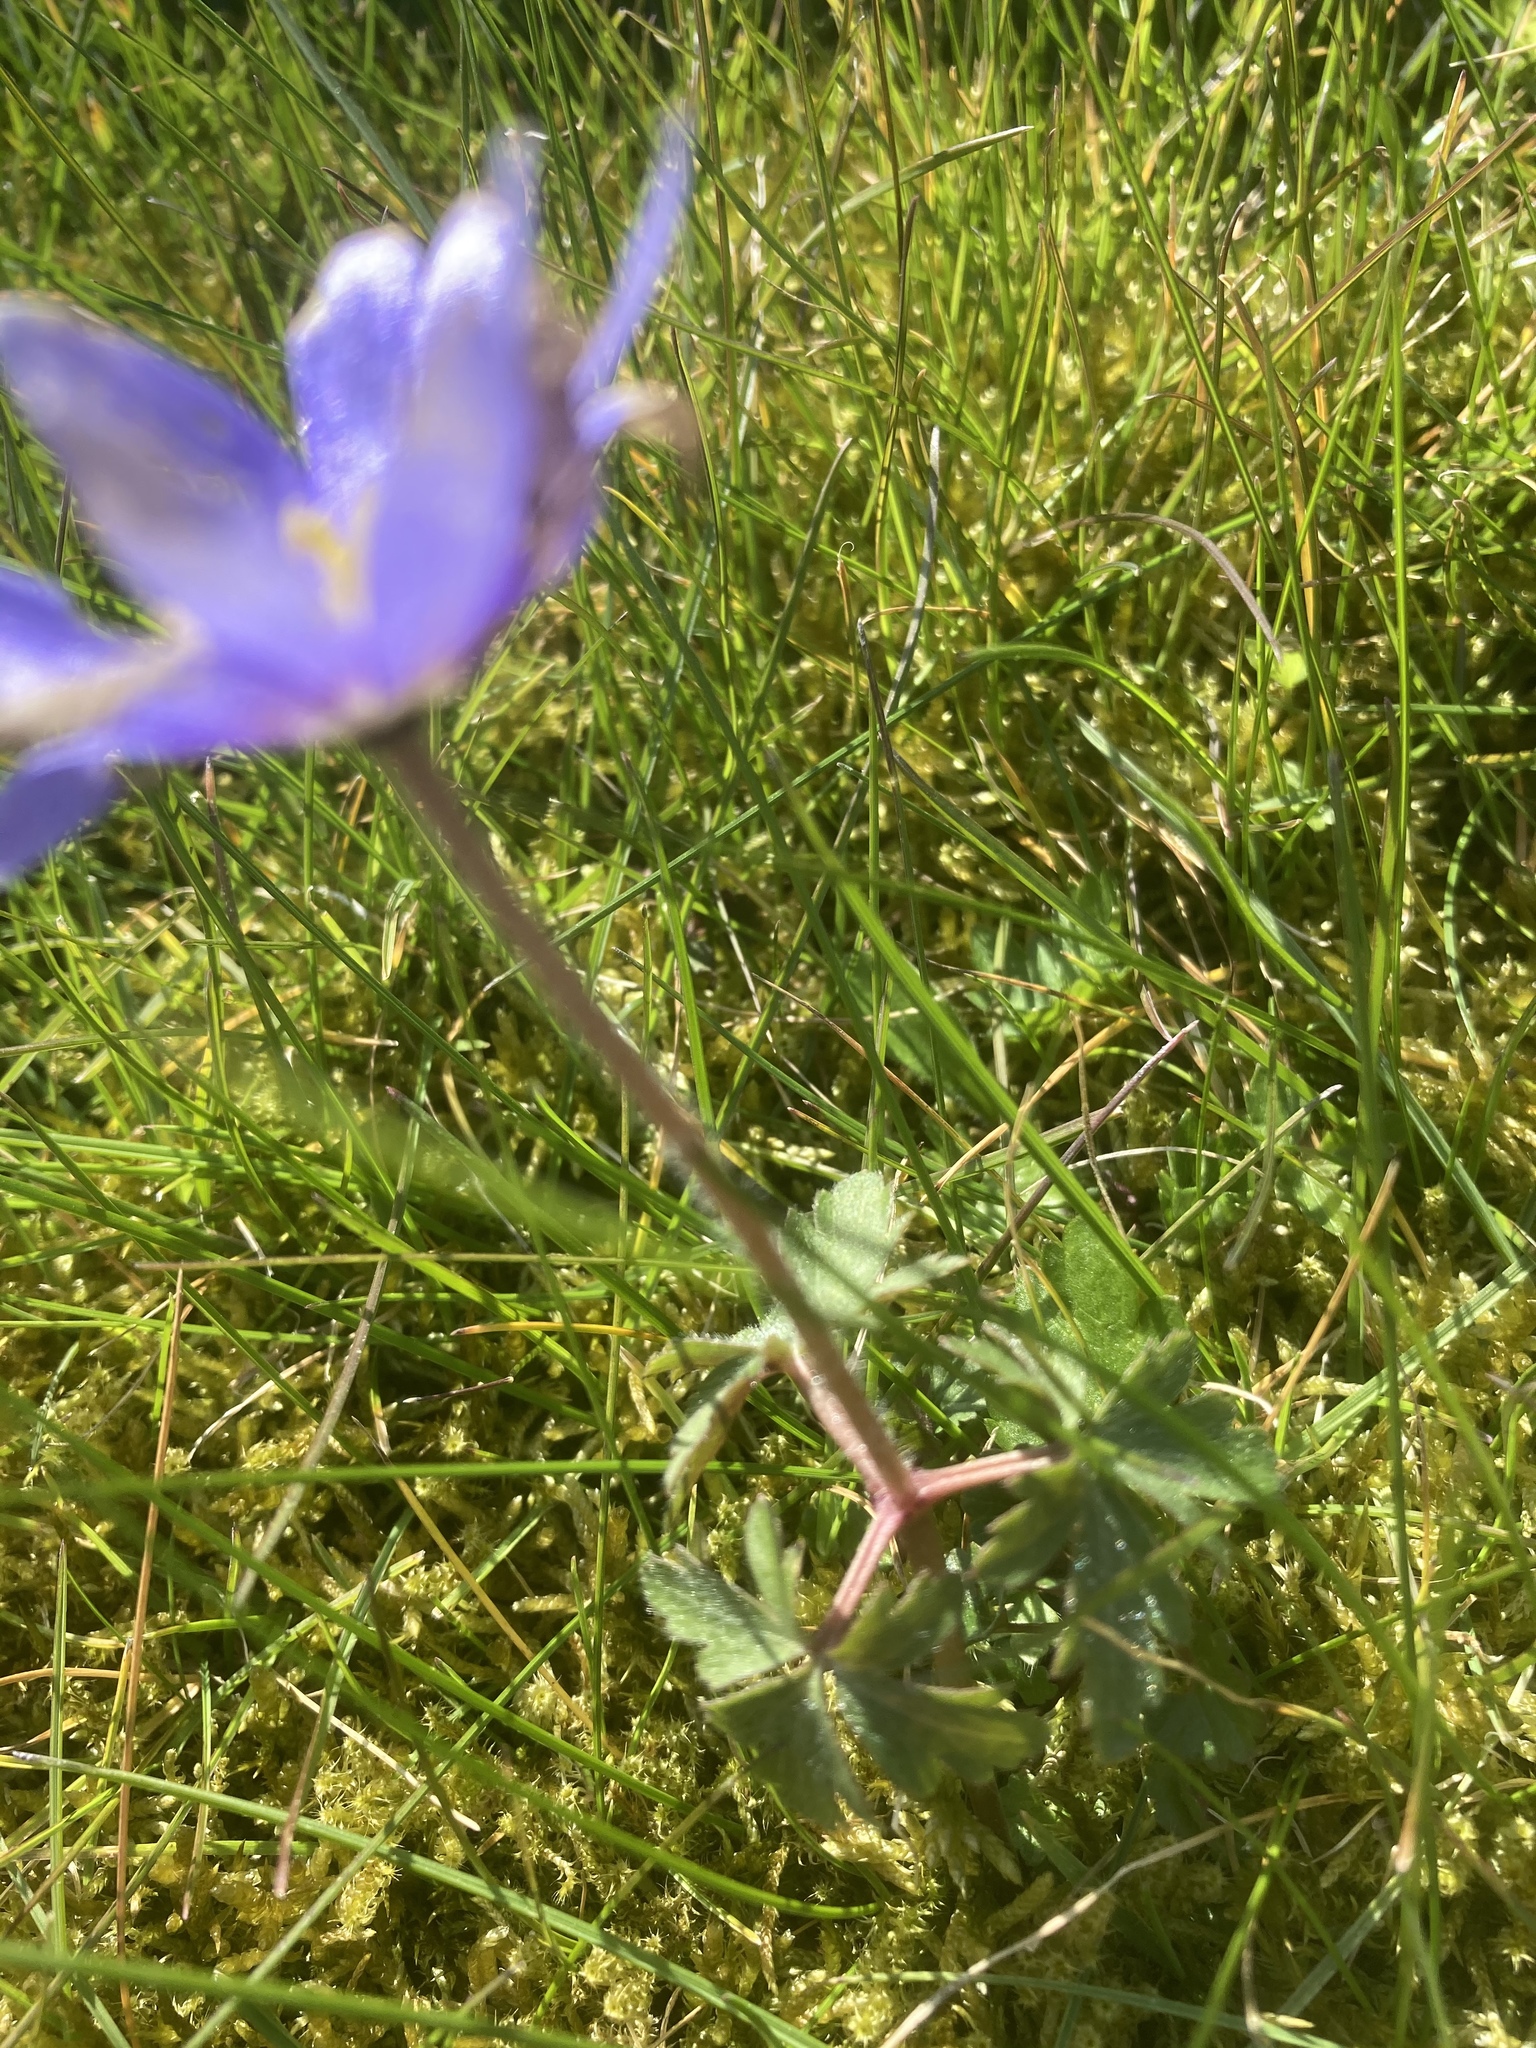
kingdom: Plantae
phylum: Tracheophyta
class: Magnoliopsida
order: Ranunculales
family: Ranunculaceae
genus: Anemone
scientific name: Anemone blanda
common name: Balkan anemone
